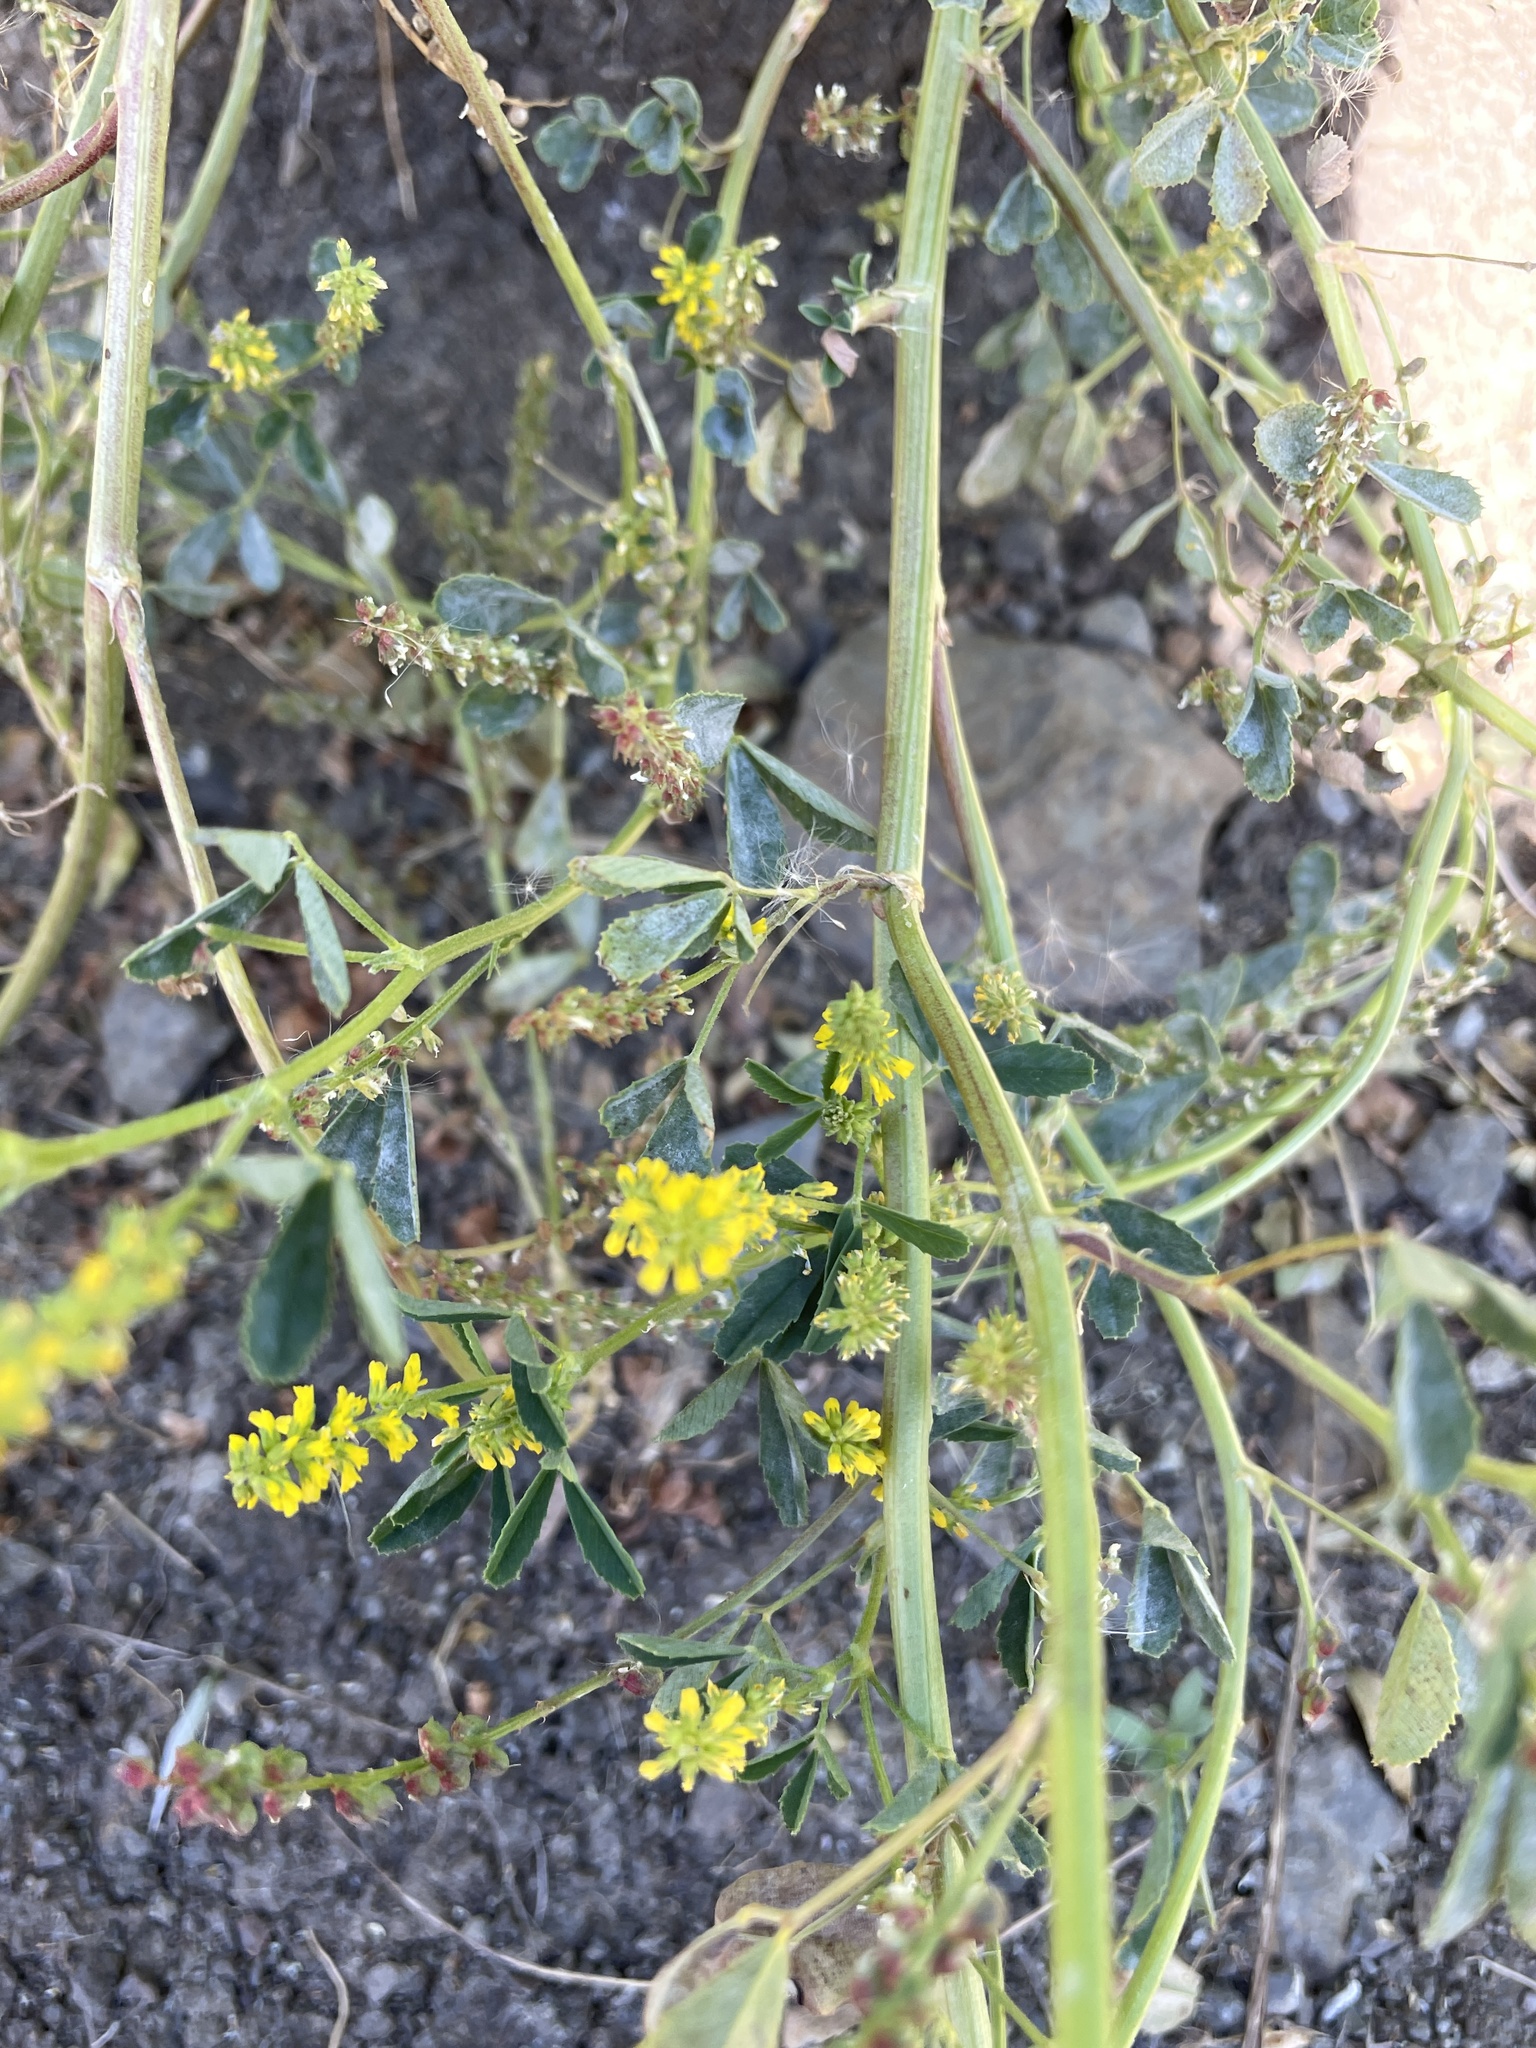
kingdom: Plantae
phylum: Tracheophyta
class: Magnoliopsida
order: Fabales
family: Fabaceae
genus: Melilotus
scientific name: Melilotus indicus
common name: Small melilot
